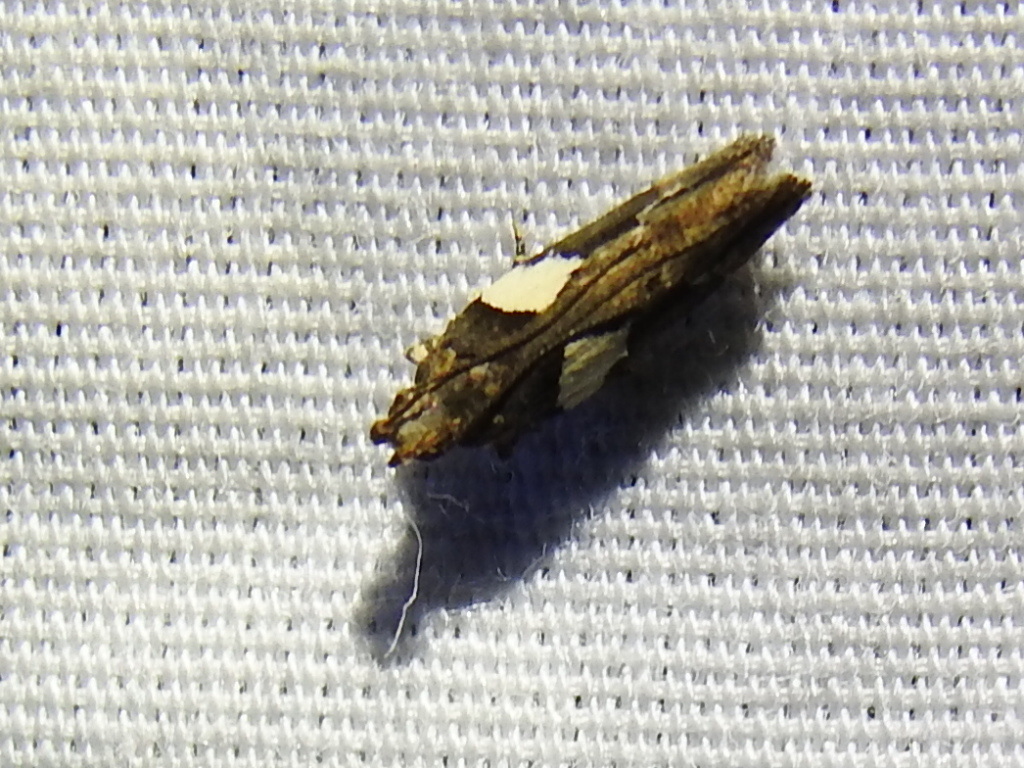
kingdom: Animalia
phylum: Arthropoda
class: Insecta
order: Lepidoptera
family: Gelechiidae
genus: Friseria
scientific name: Friseria acaciella
